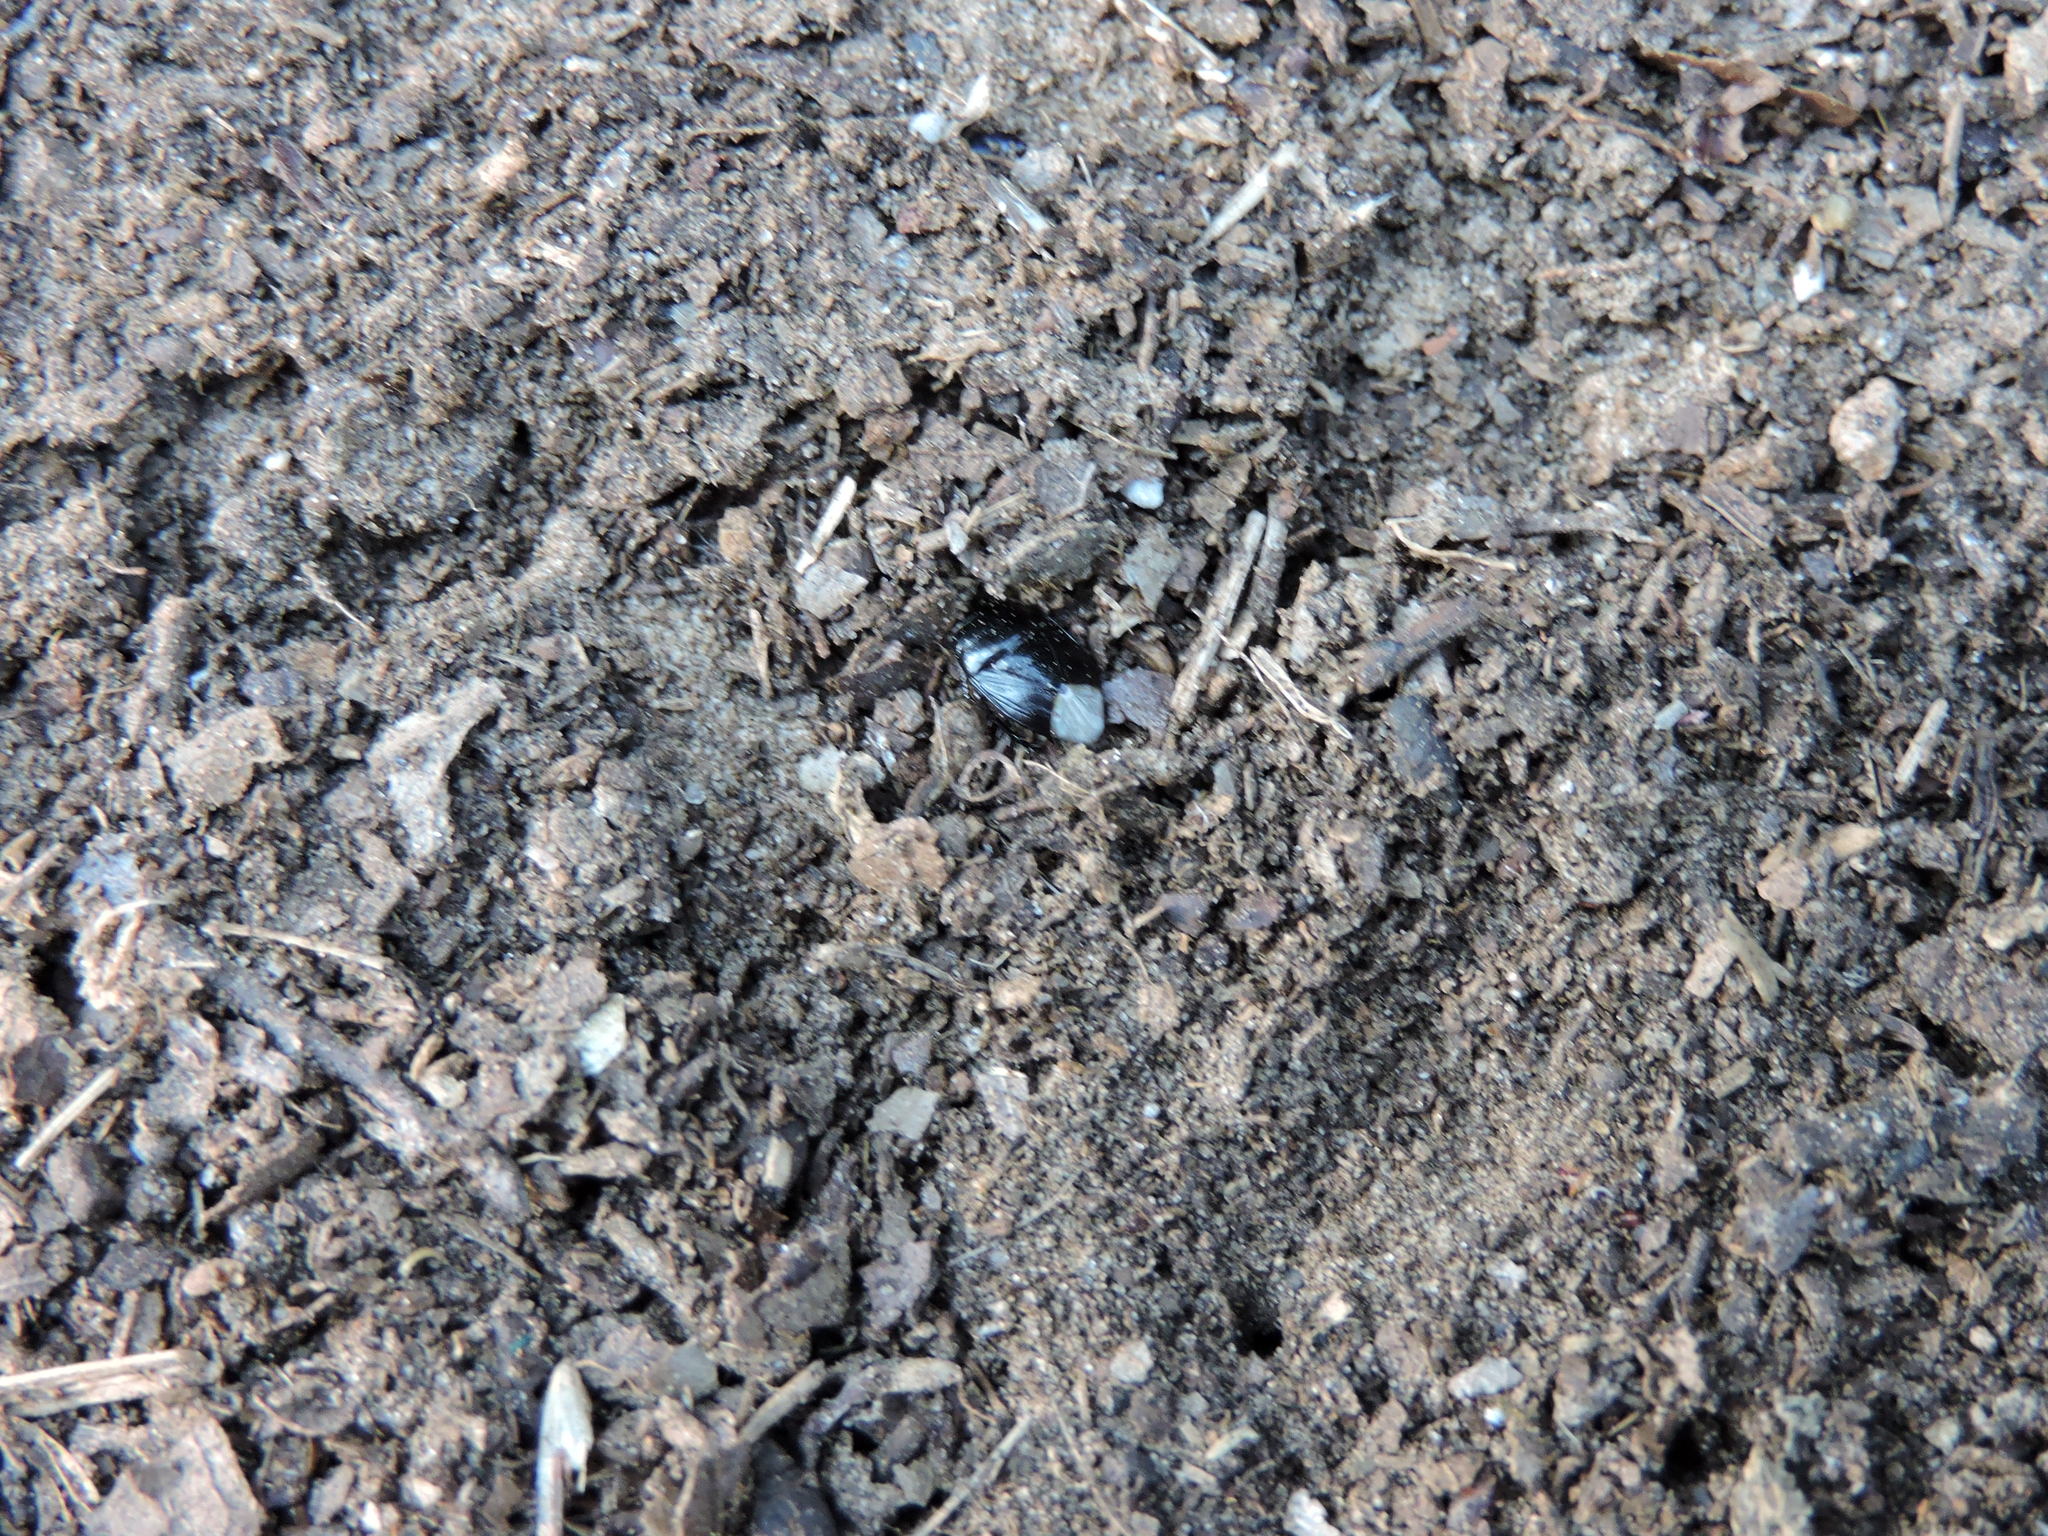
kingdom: Animalia
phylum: Arthropoda
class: Insecta
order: Hemiptera
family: Cydnidae
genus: Pangaeus
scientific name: Pangaeus bilineatus
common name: Burrower bug
